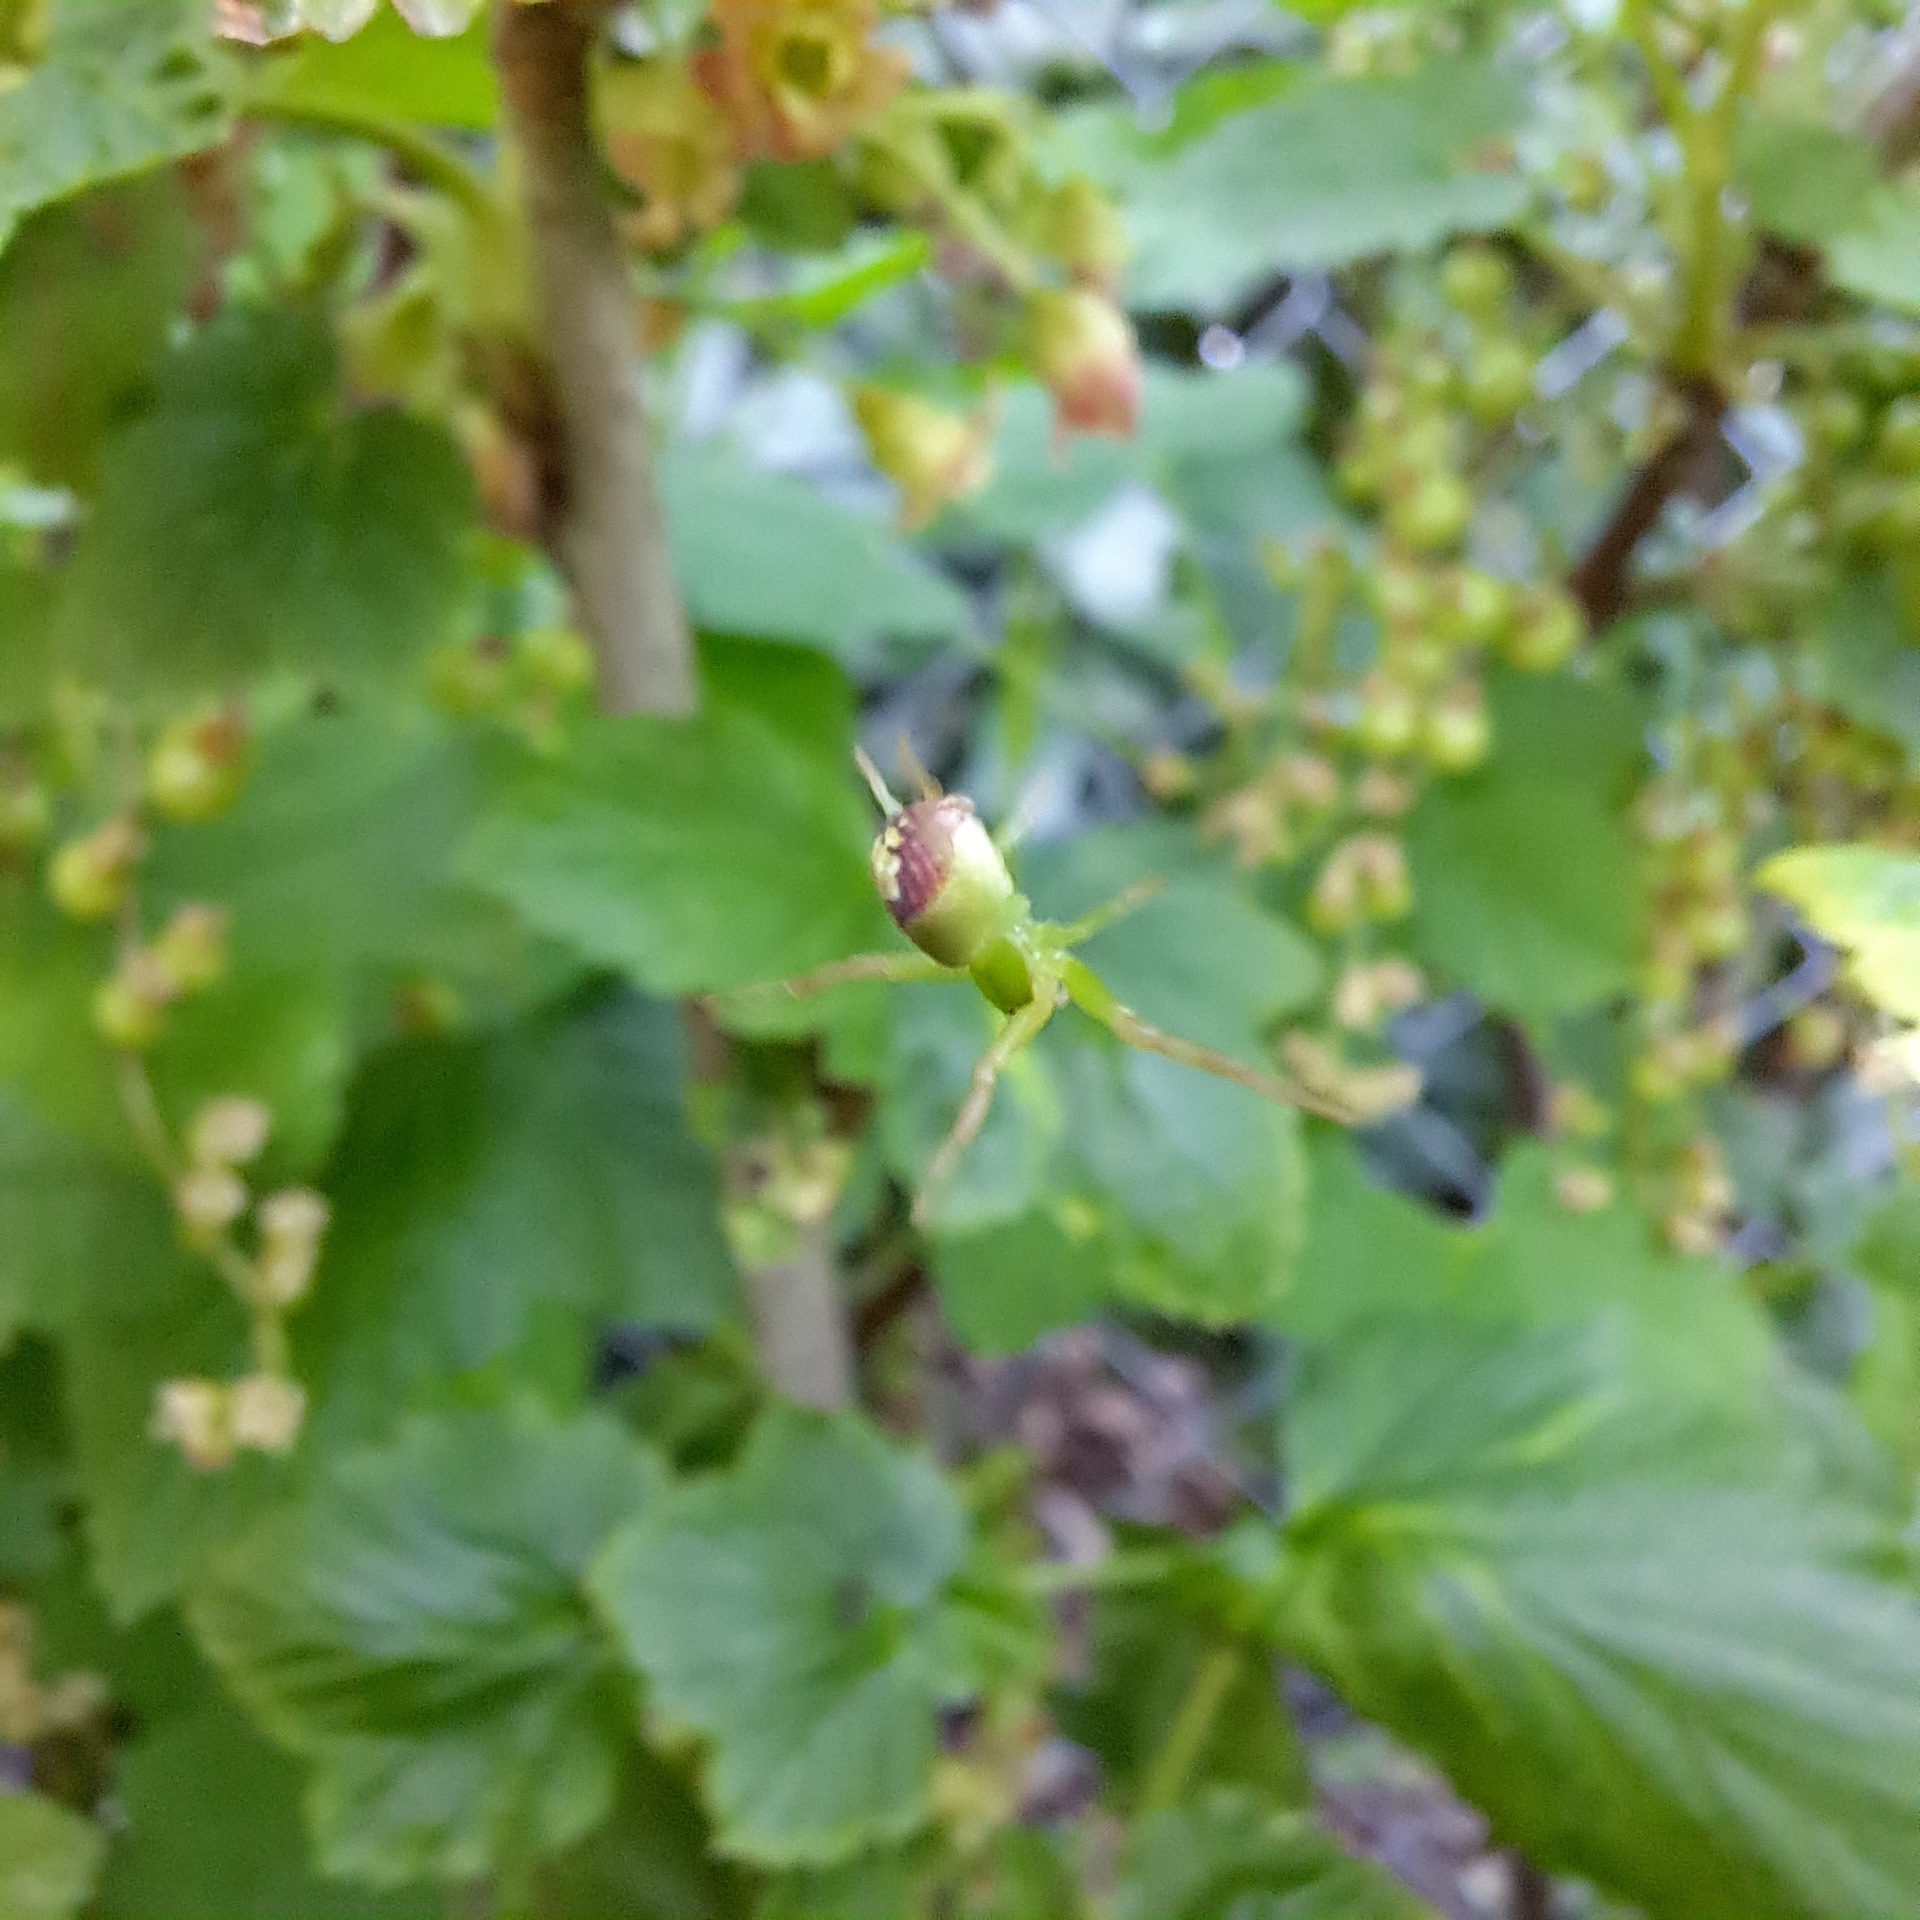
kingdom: Animalia
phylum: Arthropoda
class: Arachnida
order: Araneae
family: Thomisidae
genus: Ebrechtella
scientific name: Ebrechtella tricuspidata
